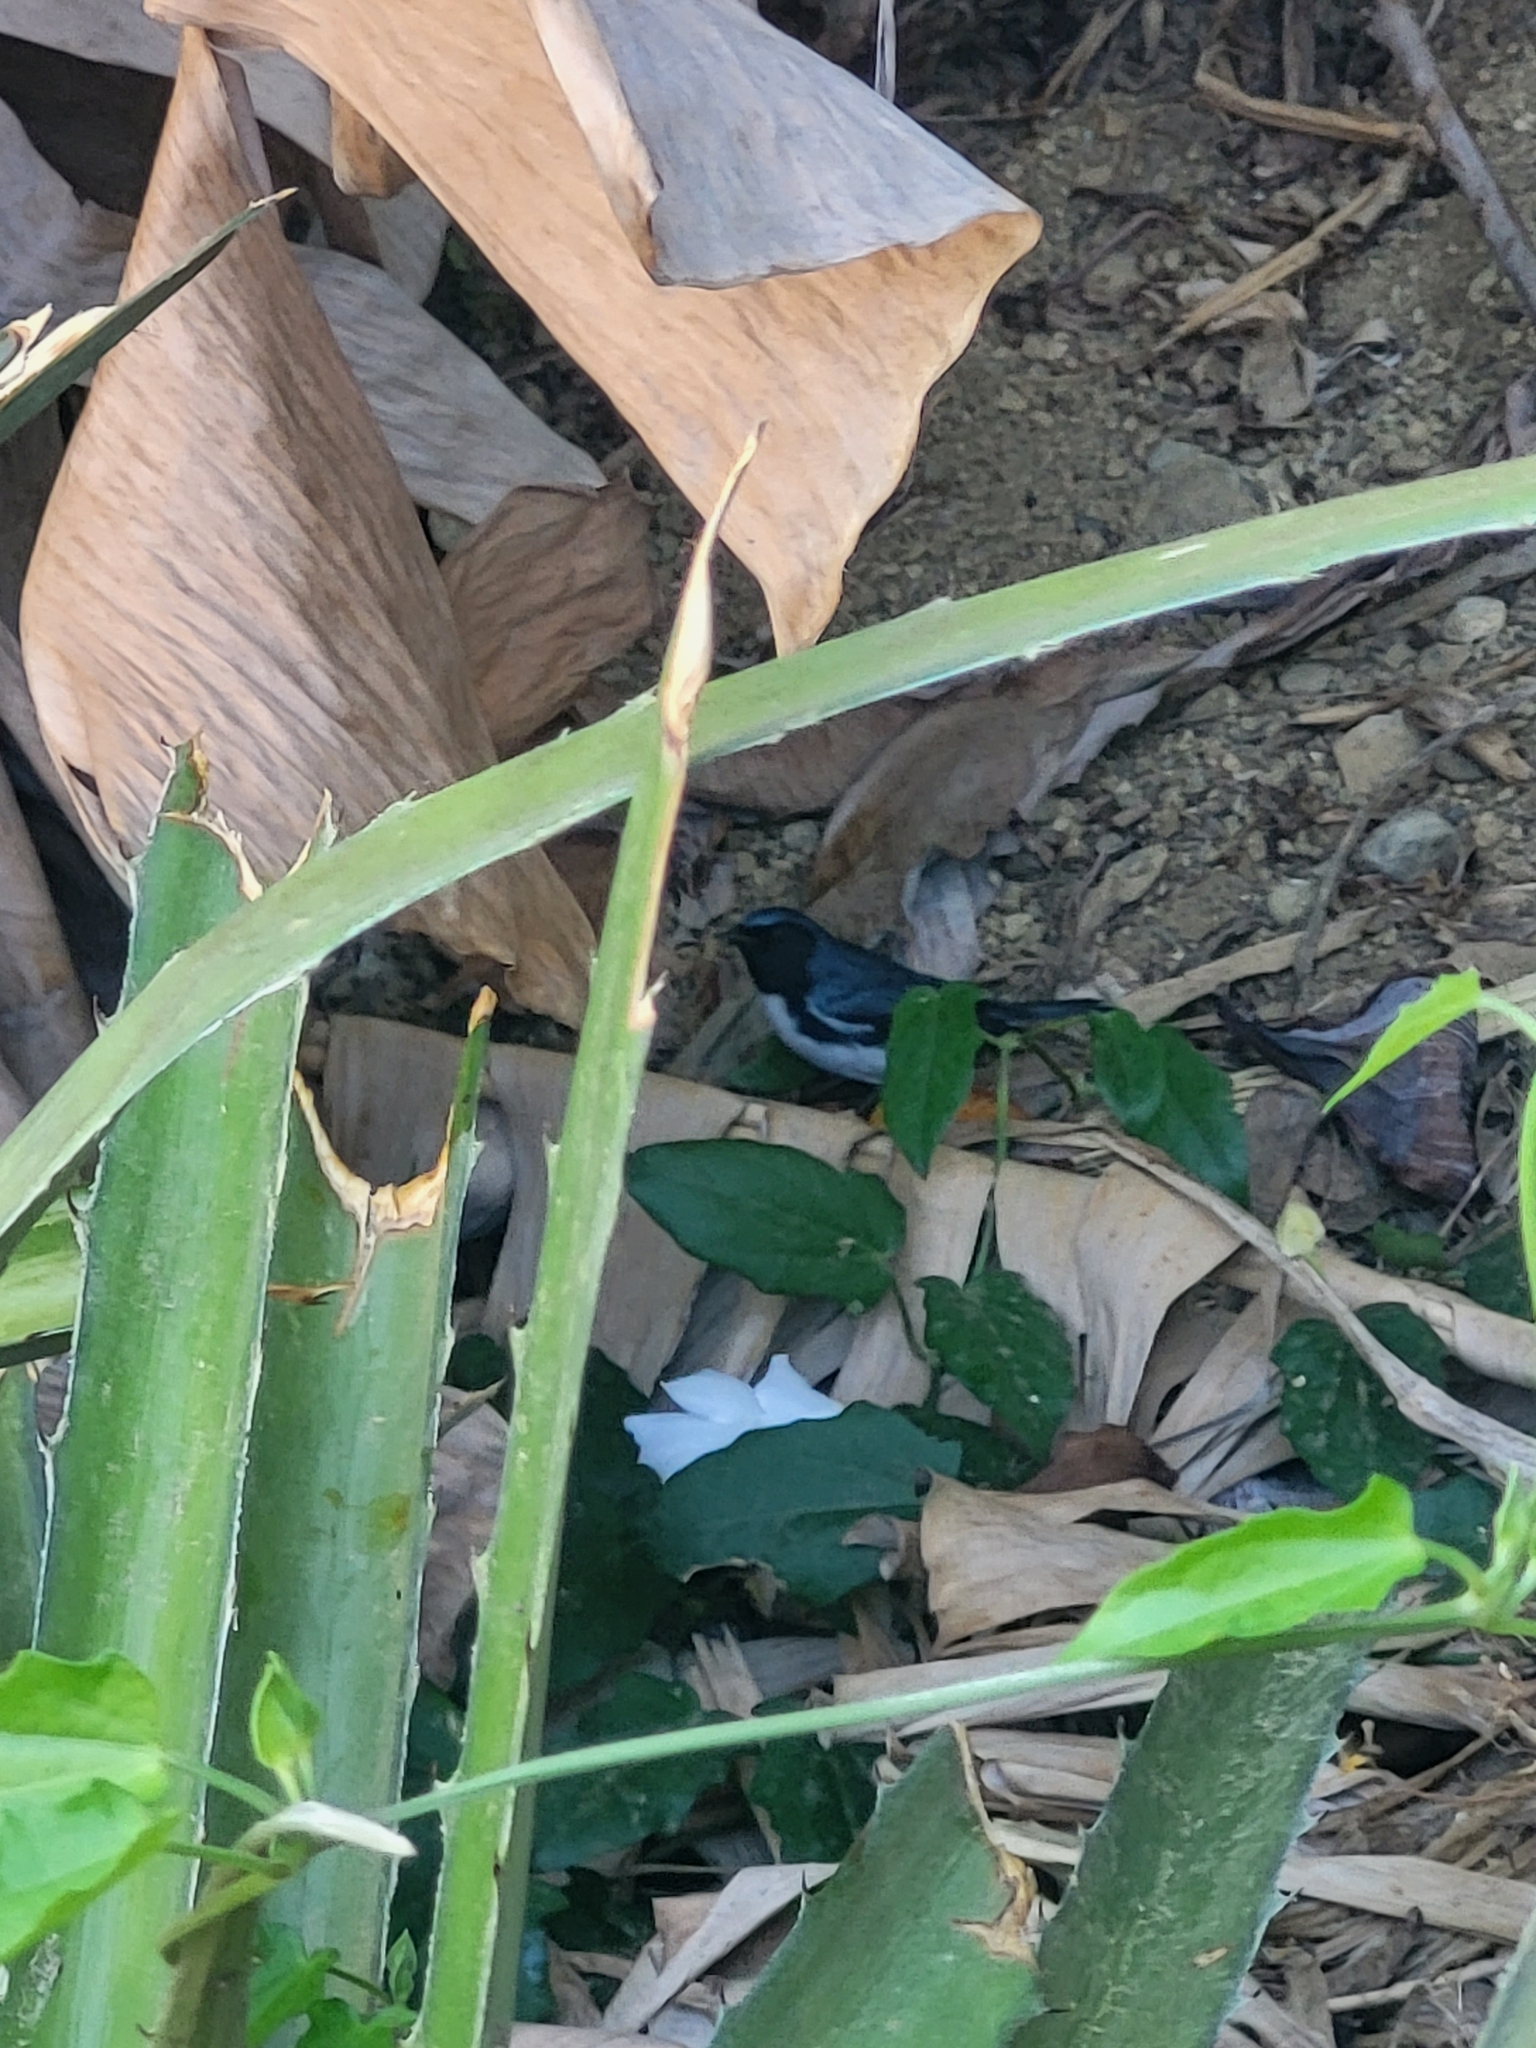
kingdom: Animalia
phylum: Chordata
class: Aves
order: Passeriformes
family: Parulidae
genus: Setophaga
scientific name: Setophaga caerulescens
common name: Black-throated blue warbler
